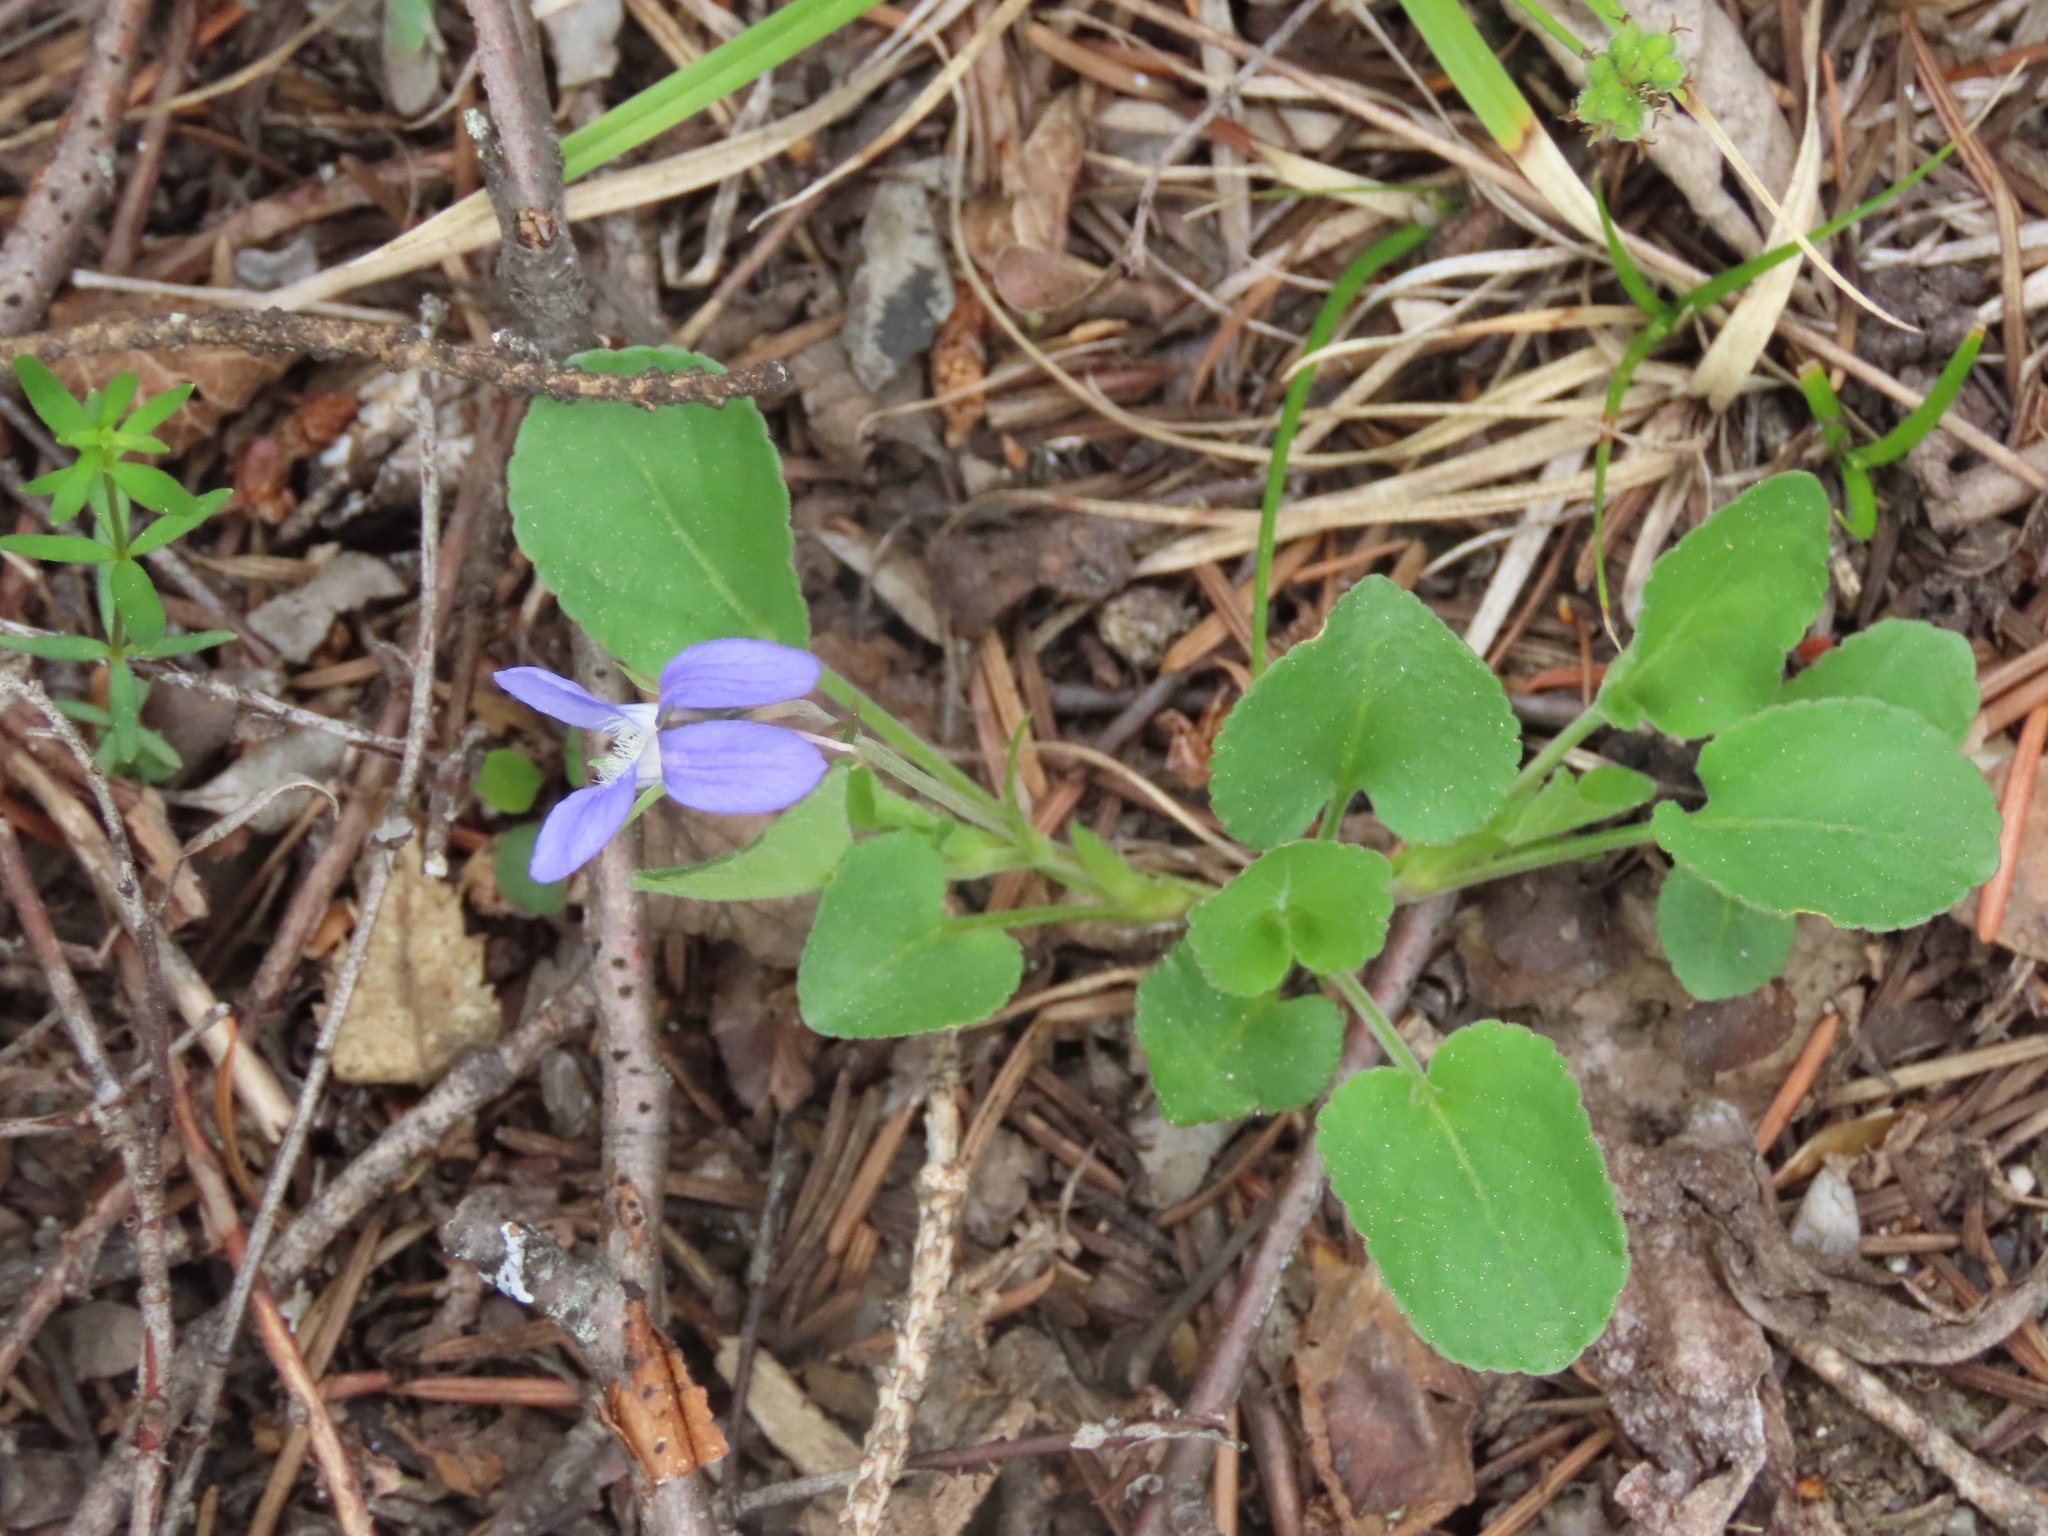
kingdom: Plantae
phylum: Tracheophyta
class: Magnoliopsida
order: Malpighiales
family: Violaceae
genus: Viola
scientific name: Viola adunca
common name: Sand violet
